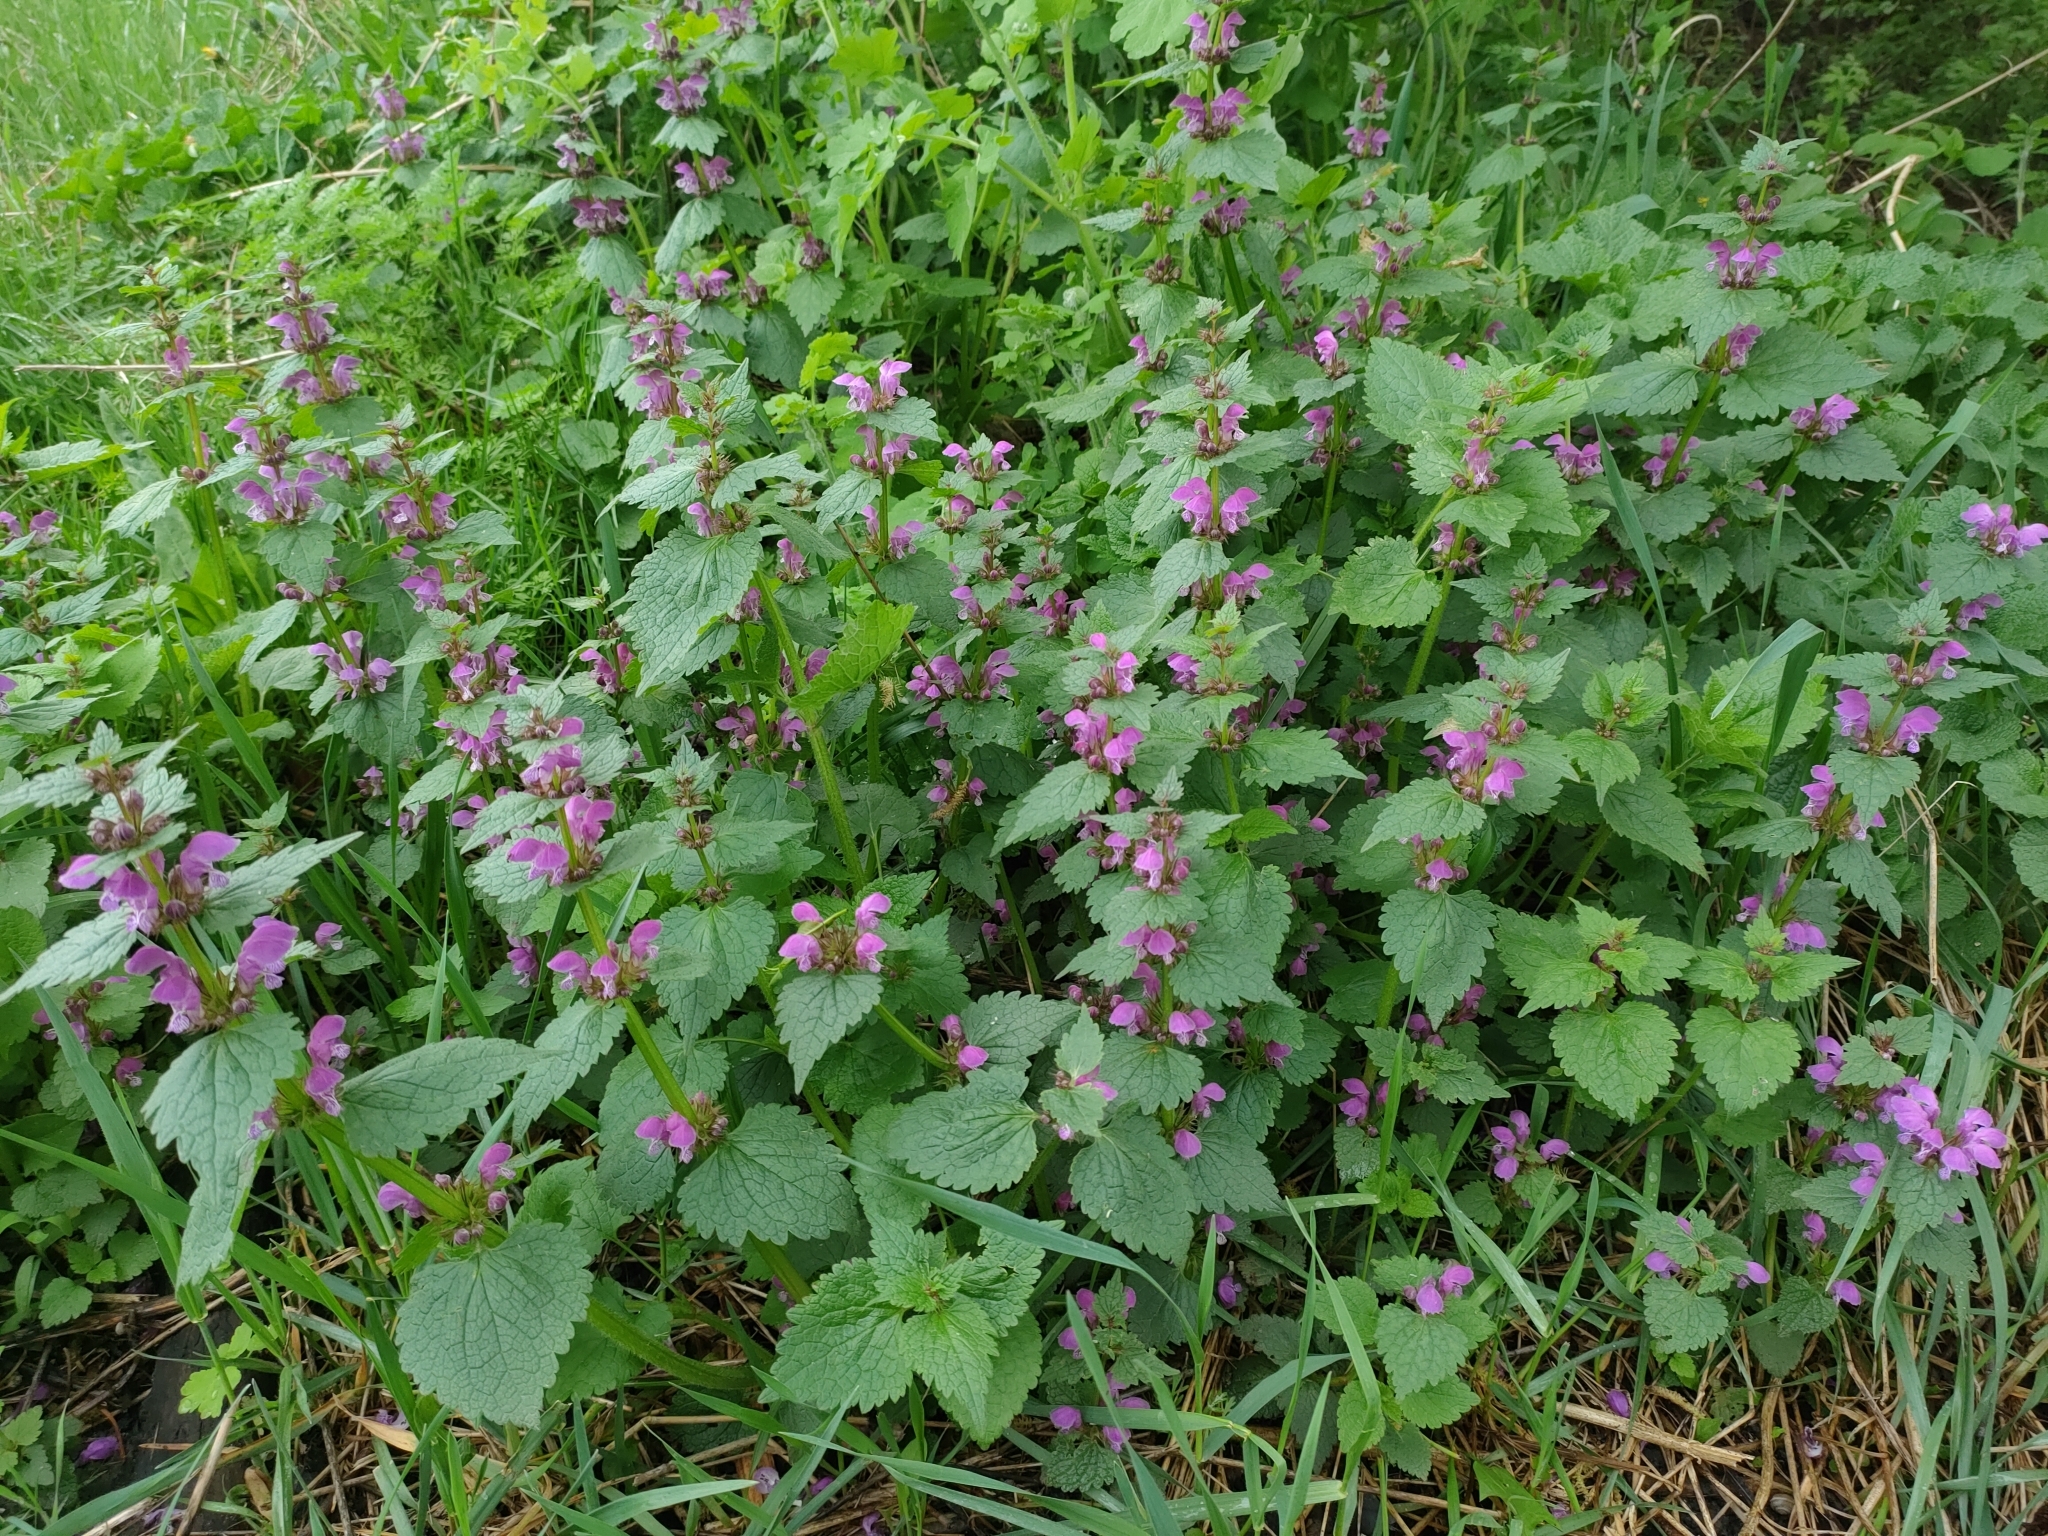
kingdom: Plantae
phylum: Tracheophyta
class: Magnoliopsida
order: Lamiales
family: Lamiaceae
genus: Lamium
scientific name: Lamium maculatum
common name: Spotted dead-nettle
